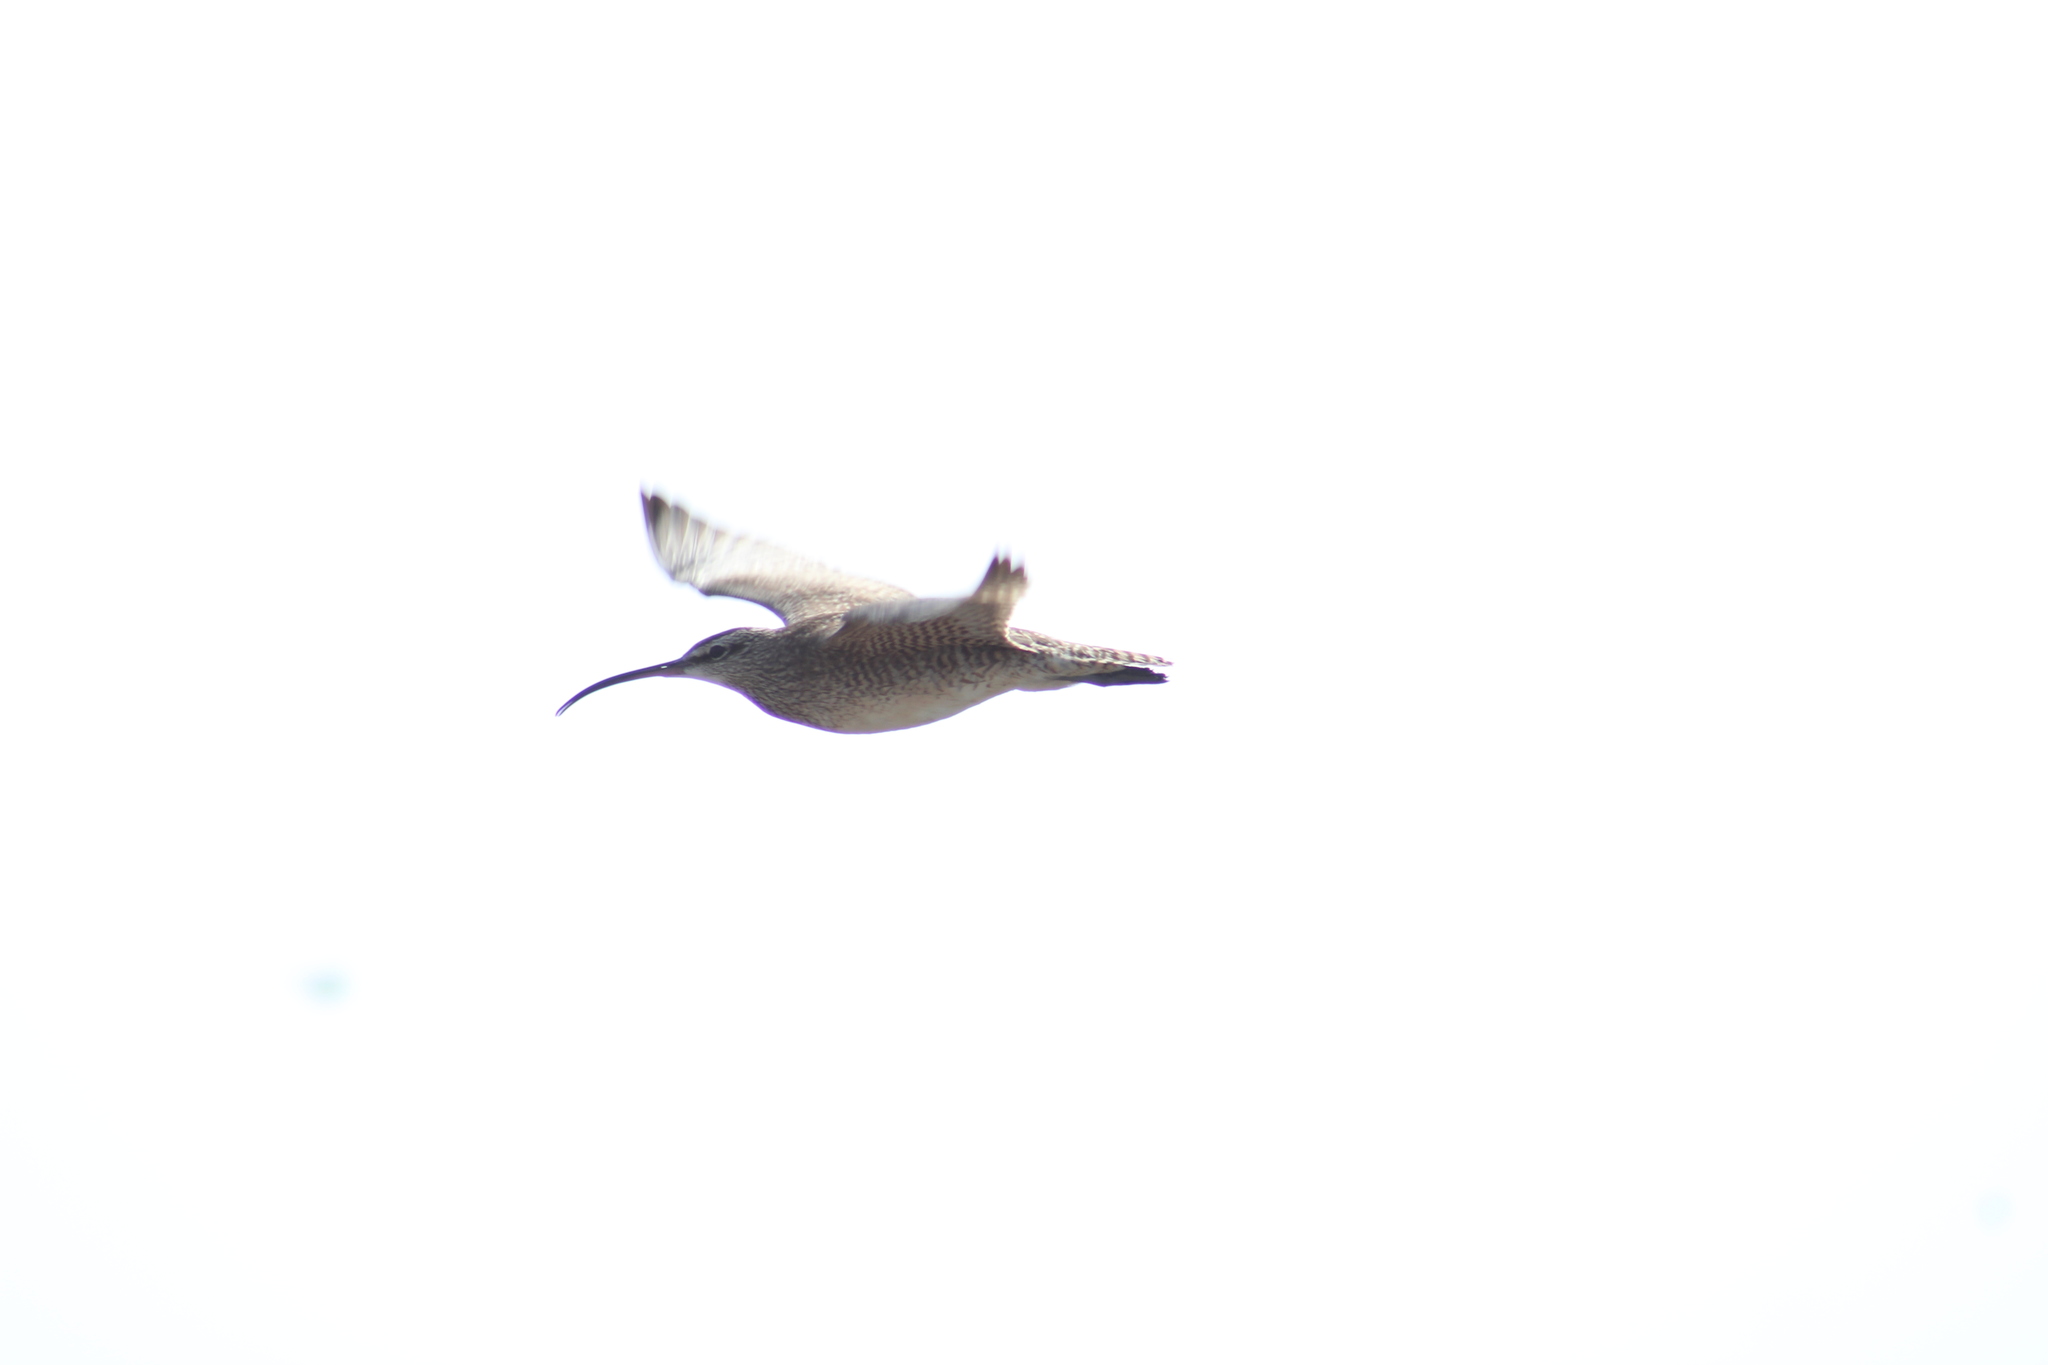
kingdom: Animalia
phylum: Chordata
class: Aves
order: Charadriiformes
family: Scolopacidae
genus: Numenius
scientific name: Numenius phaeopus
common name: Whimbrel
